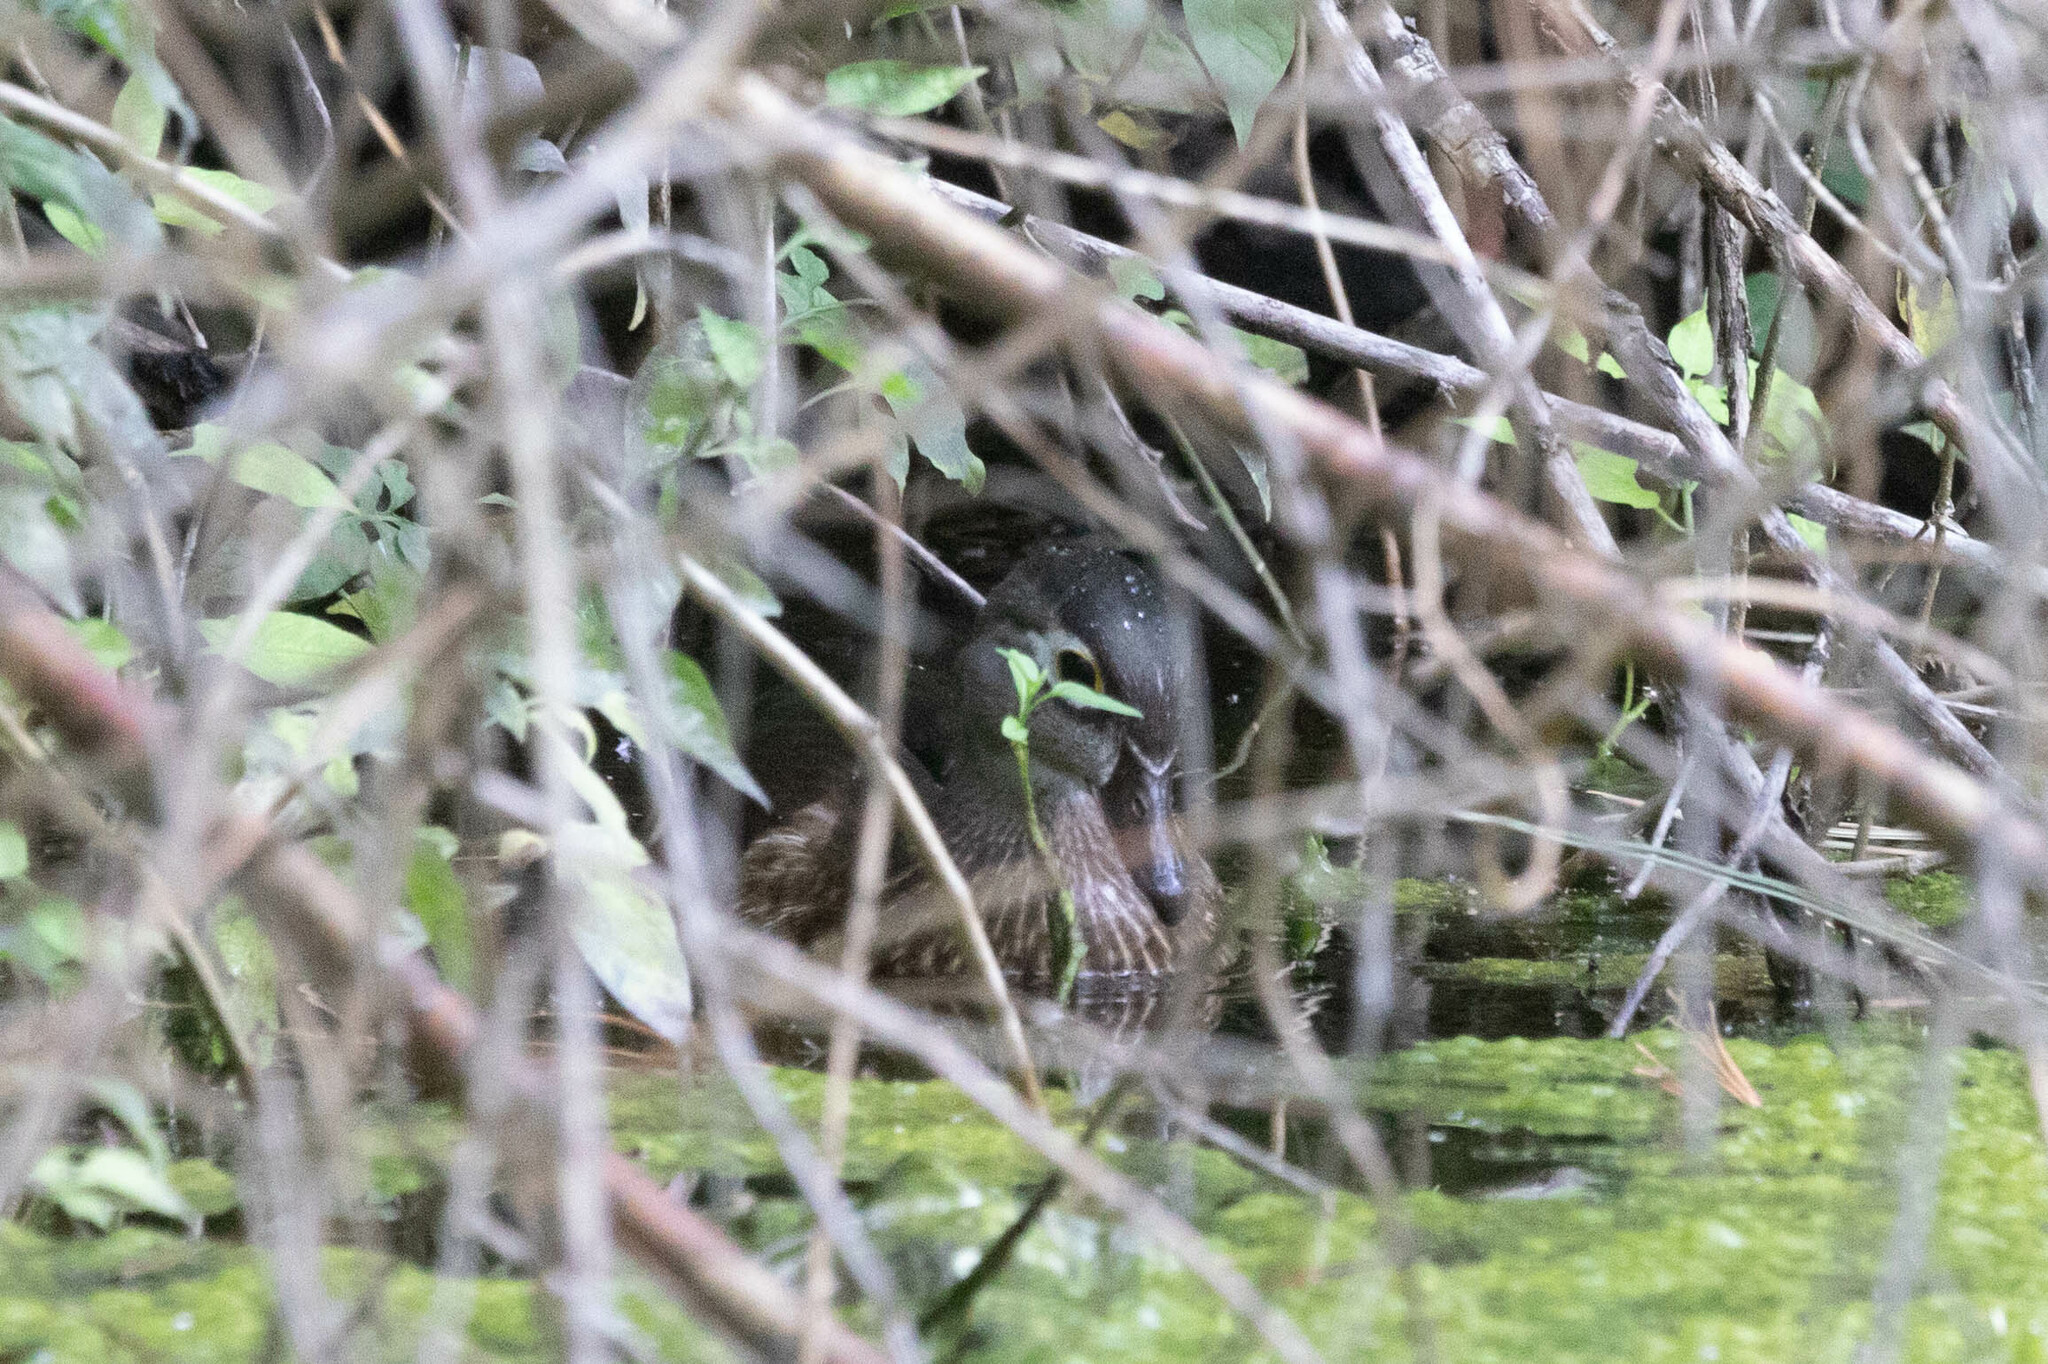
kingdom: Animalia
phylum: Chordata
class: Aves
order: Anseriformes
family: Anatidae
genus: Aix
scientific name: Aix sponsa
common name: Wood duck
